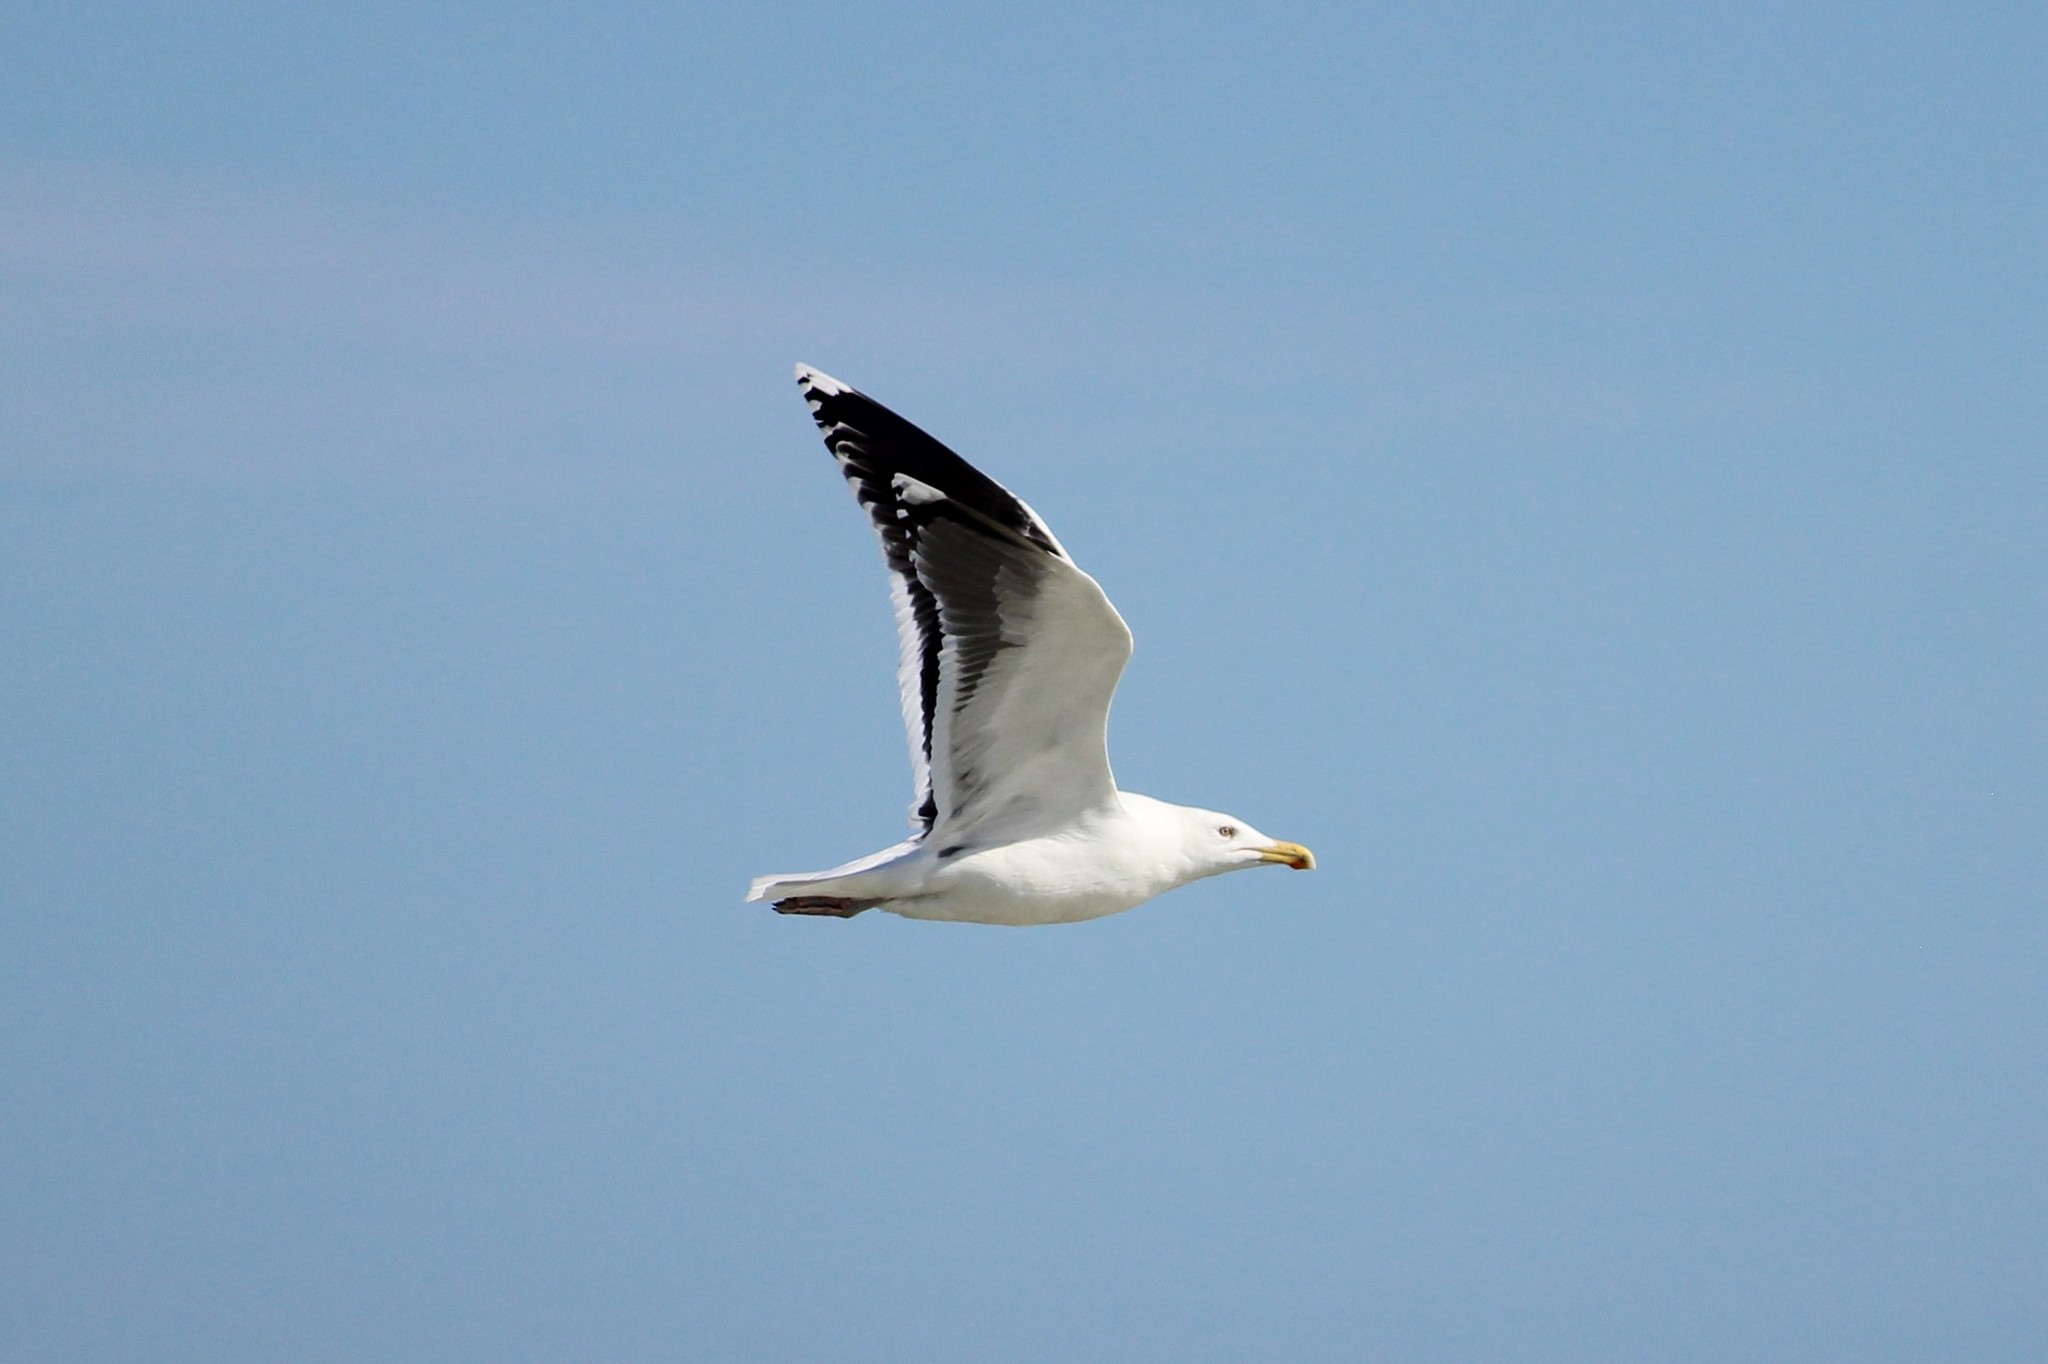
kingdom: Animalia
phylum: Chordata
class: Aves
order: Charadriiformes
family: Laridae
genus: Larus
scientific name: Larus marinus
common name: Great black-backed gull
